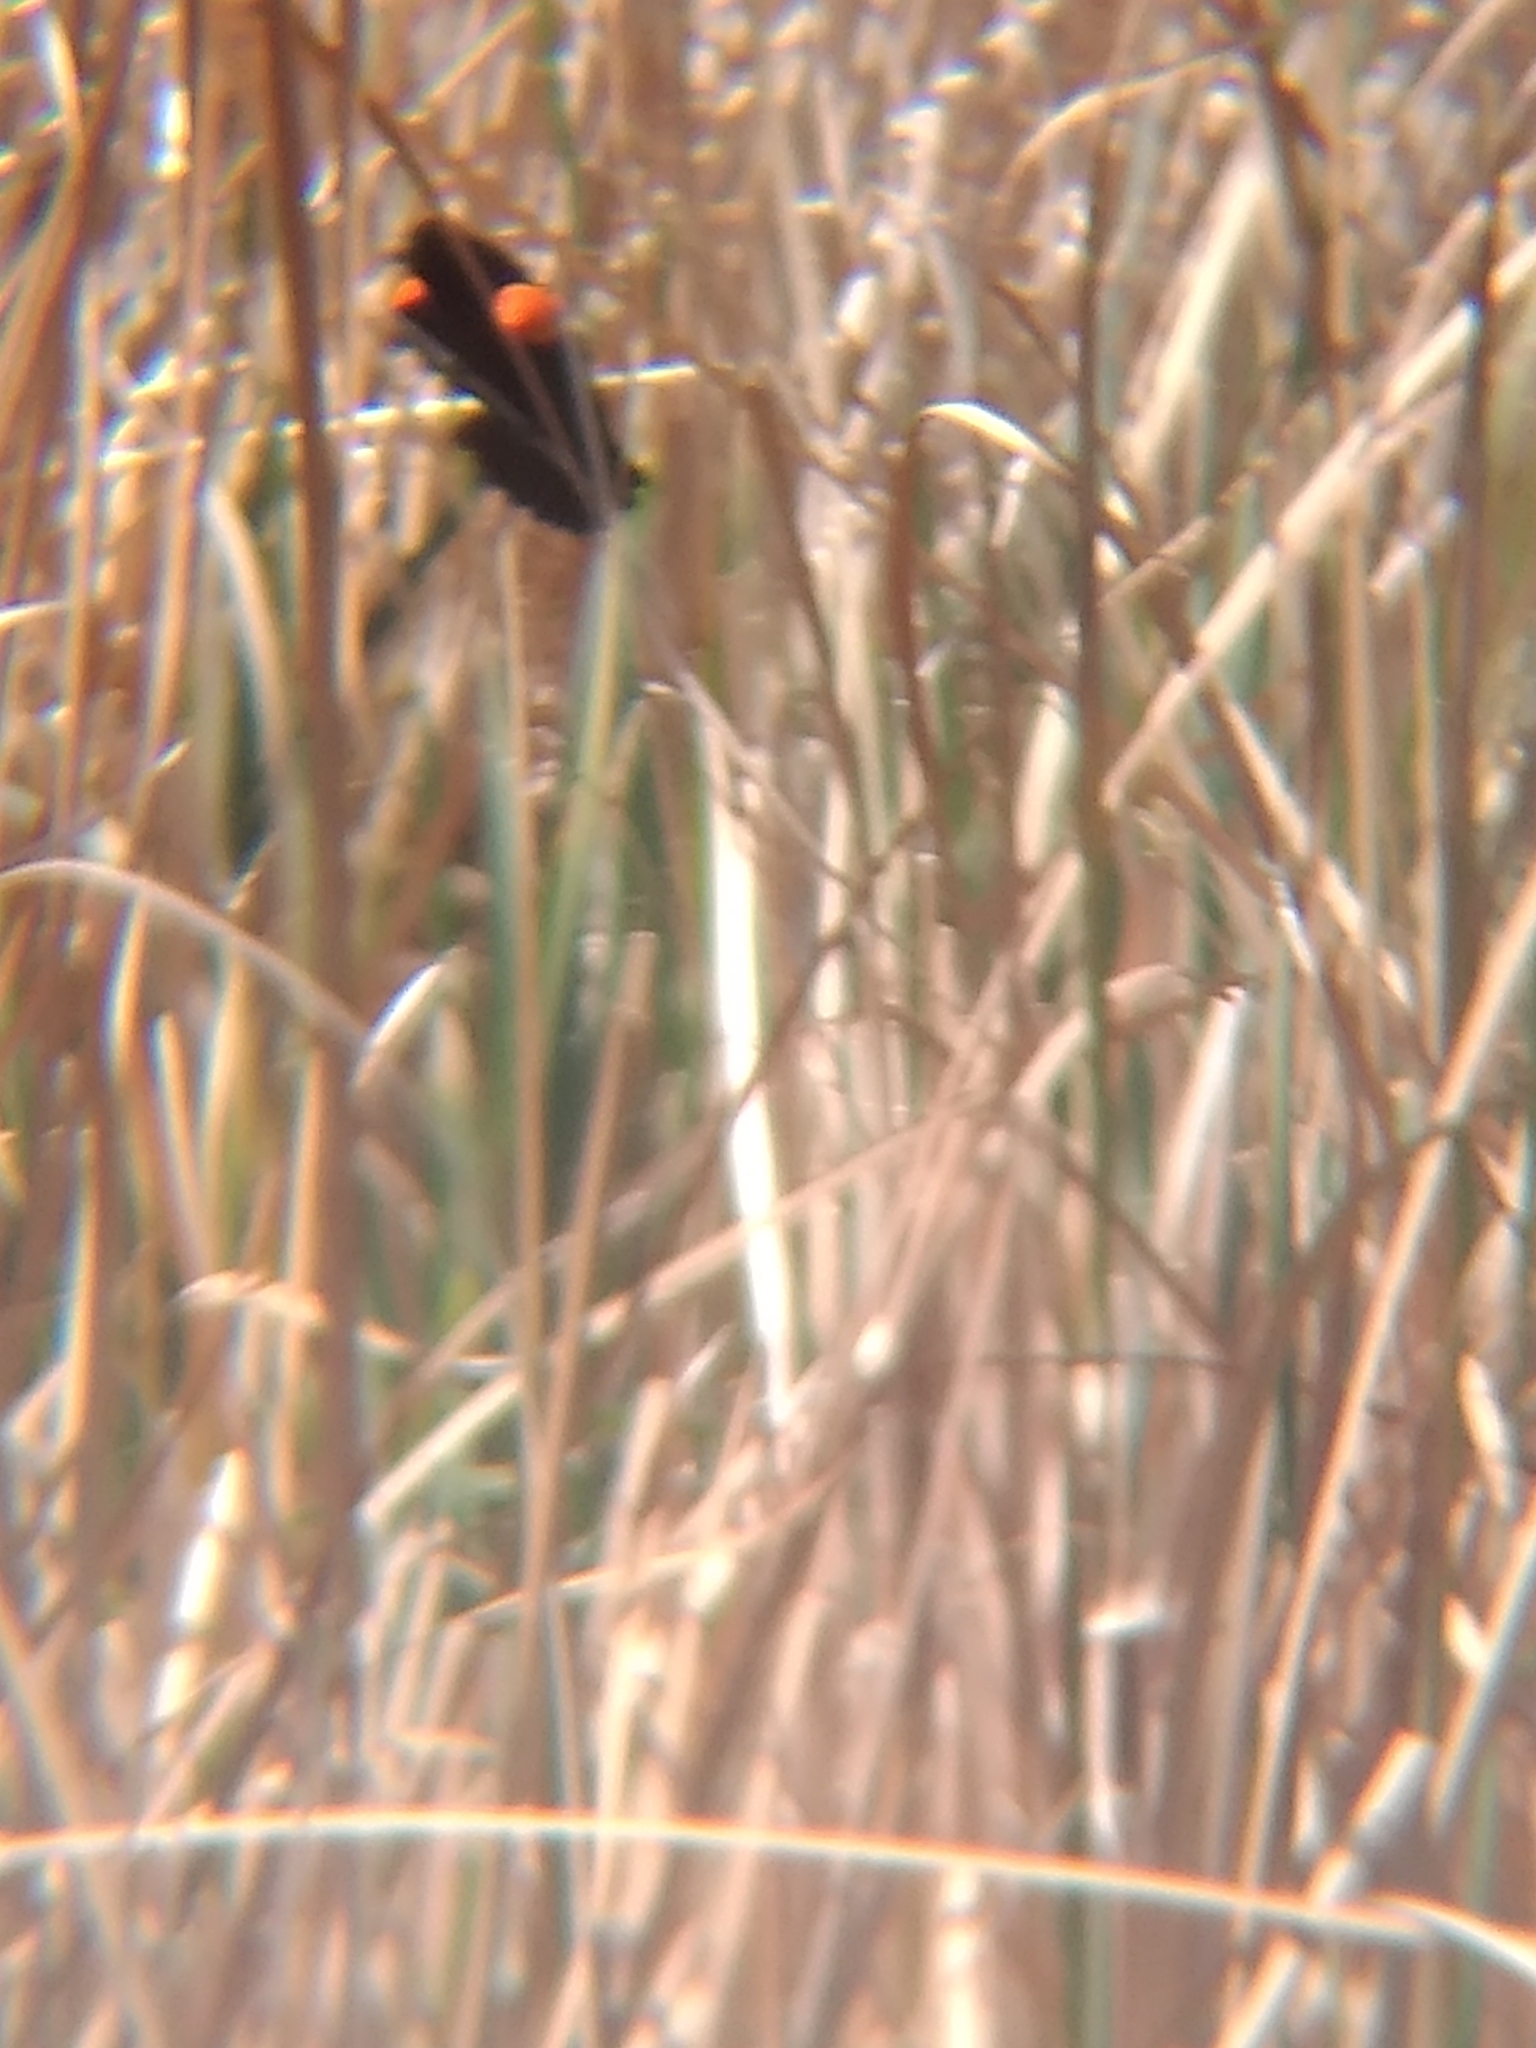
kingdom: Animalia
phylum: Chordata
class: Aves
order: Passeriformes
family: Icteridae
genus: Agelaius
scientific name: Agelaius phoeniceus
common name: Red-winged blackbird
